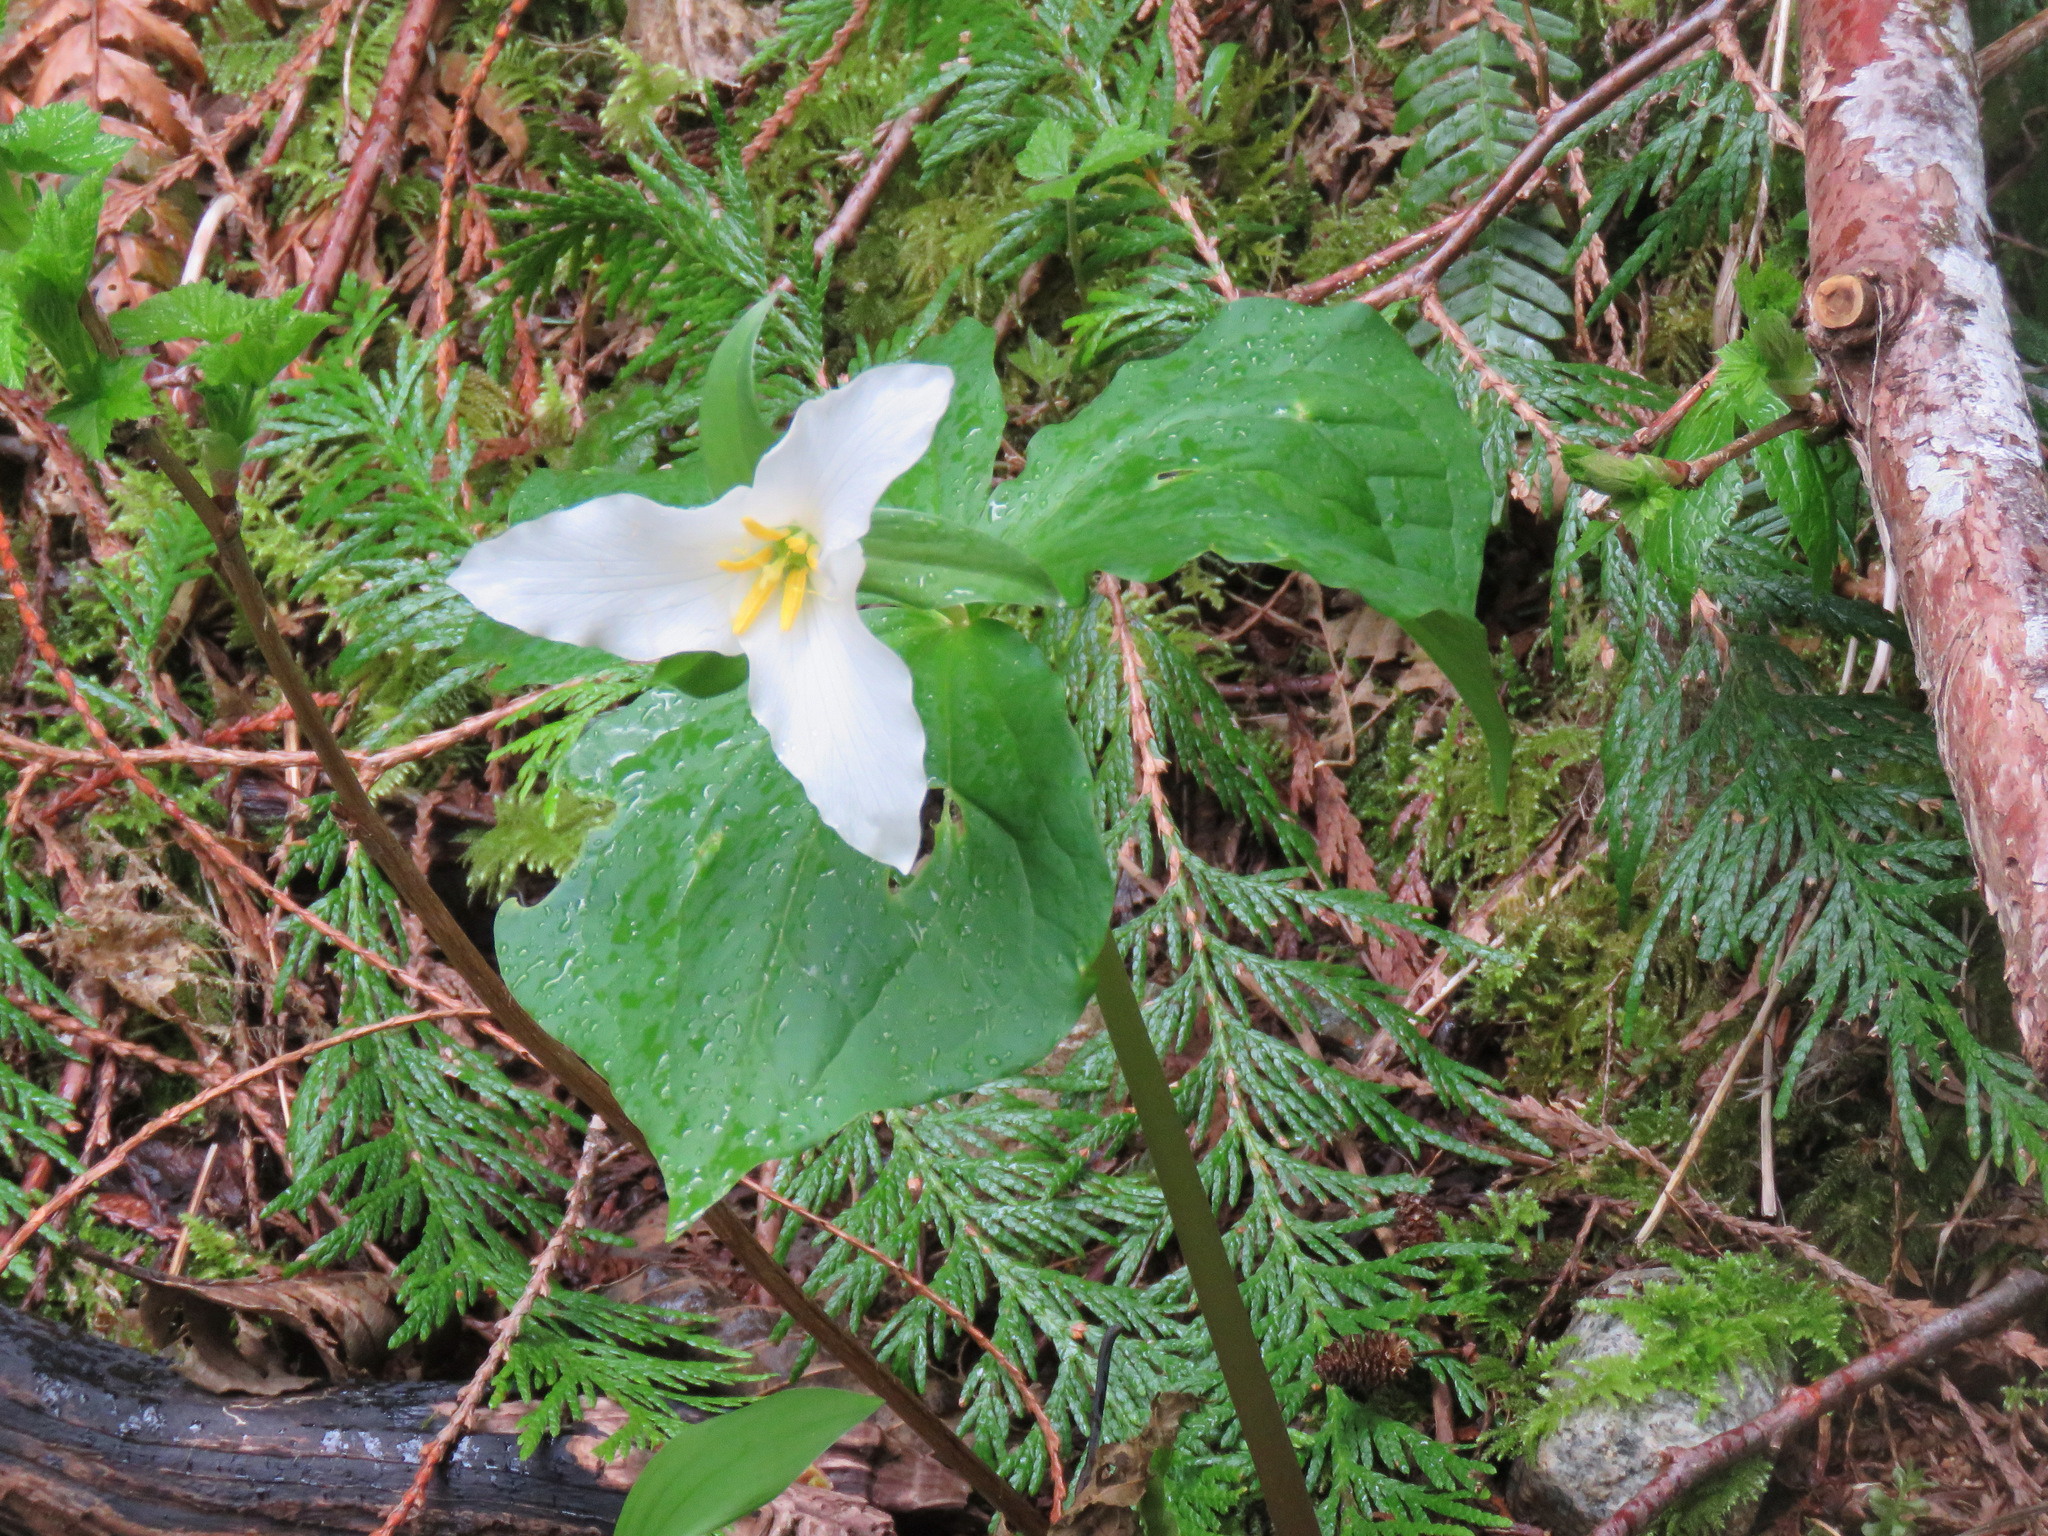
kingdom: Plantae
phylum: Tracheophyta
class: Liliopsida
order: Liliales
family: Melanthiaceae
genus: Trillium
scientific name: Trillium ovatum
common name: Pacific trillium
